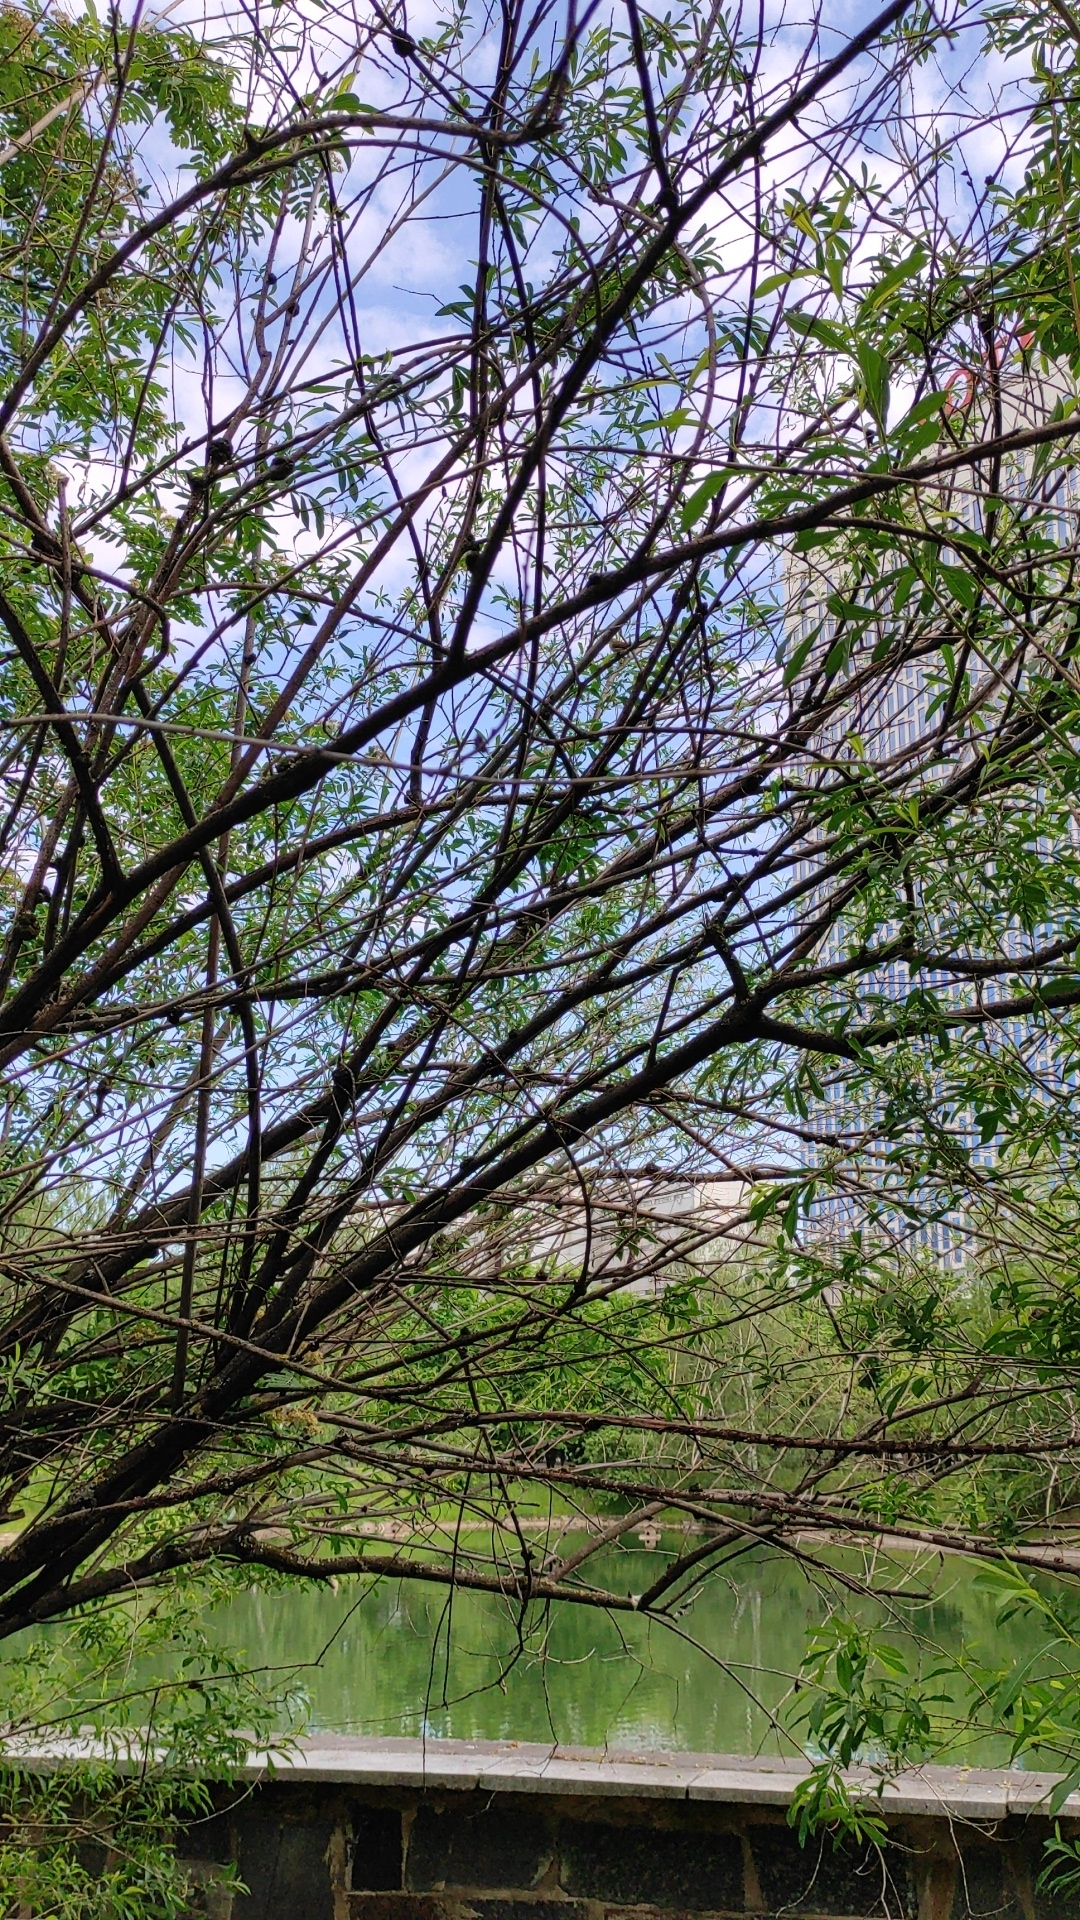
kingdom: Animalia
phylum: Chordata
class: Aves
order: Passeriformes
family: Acrocephalidae
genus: Acrocephalus
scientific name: Acrocephalus dumetorum
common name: Blyth's reed warbler
